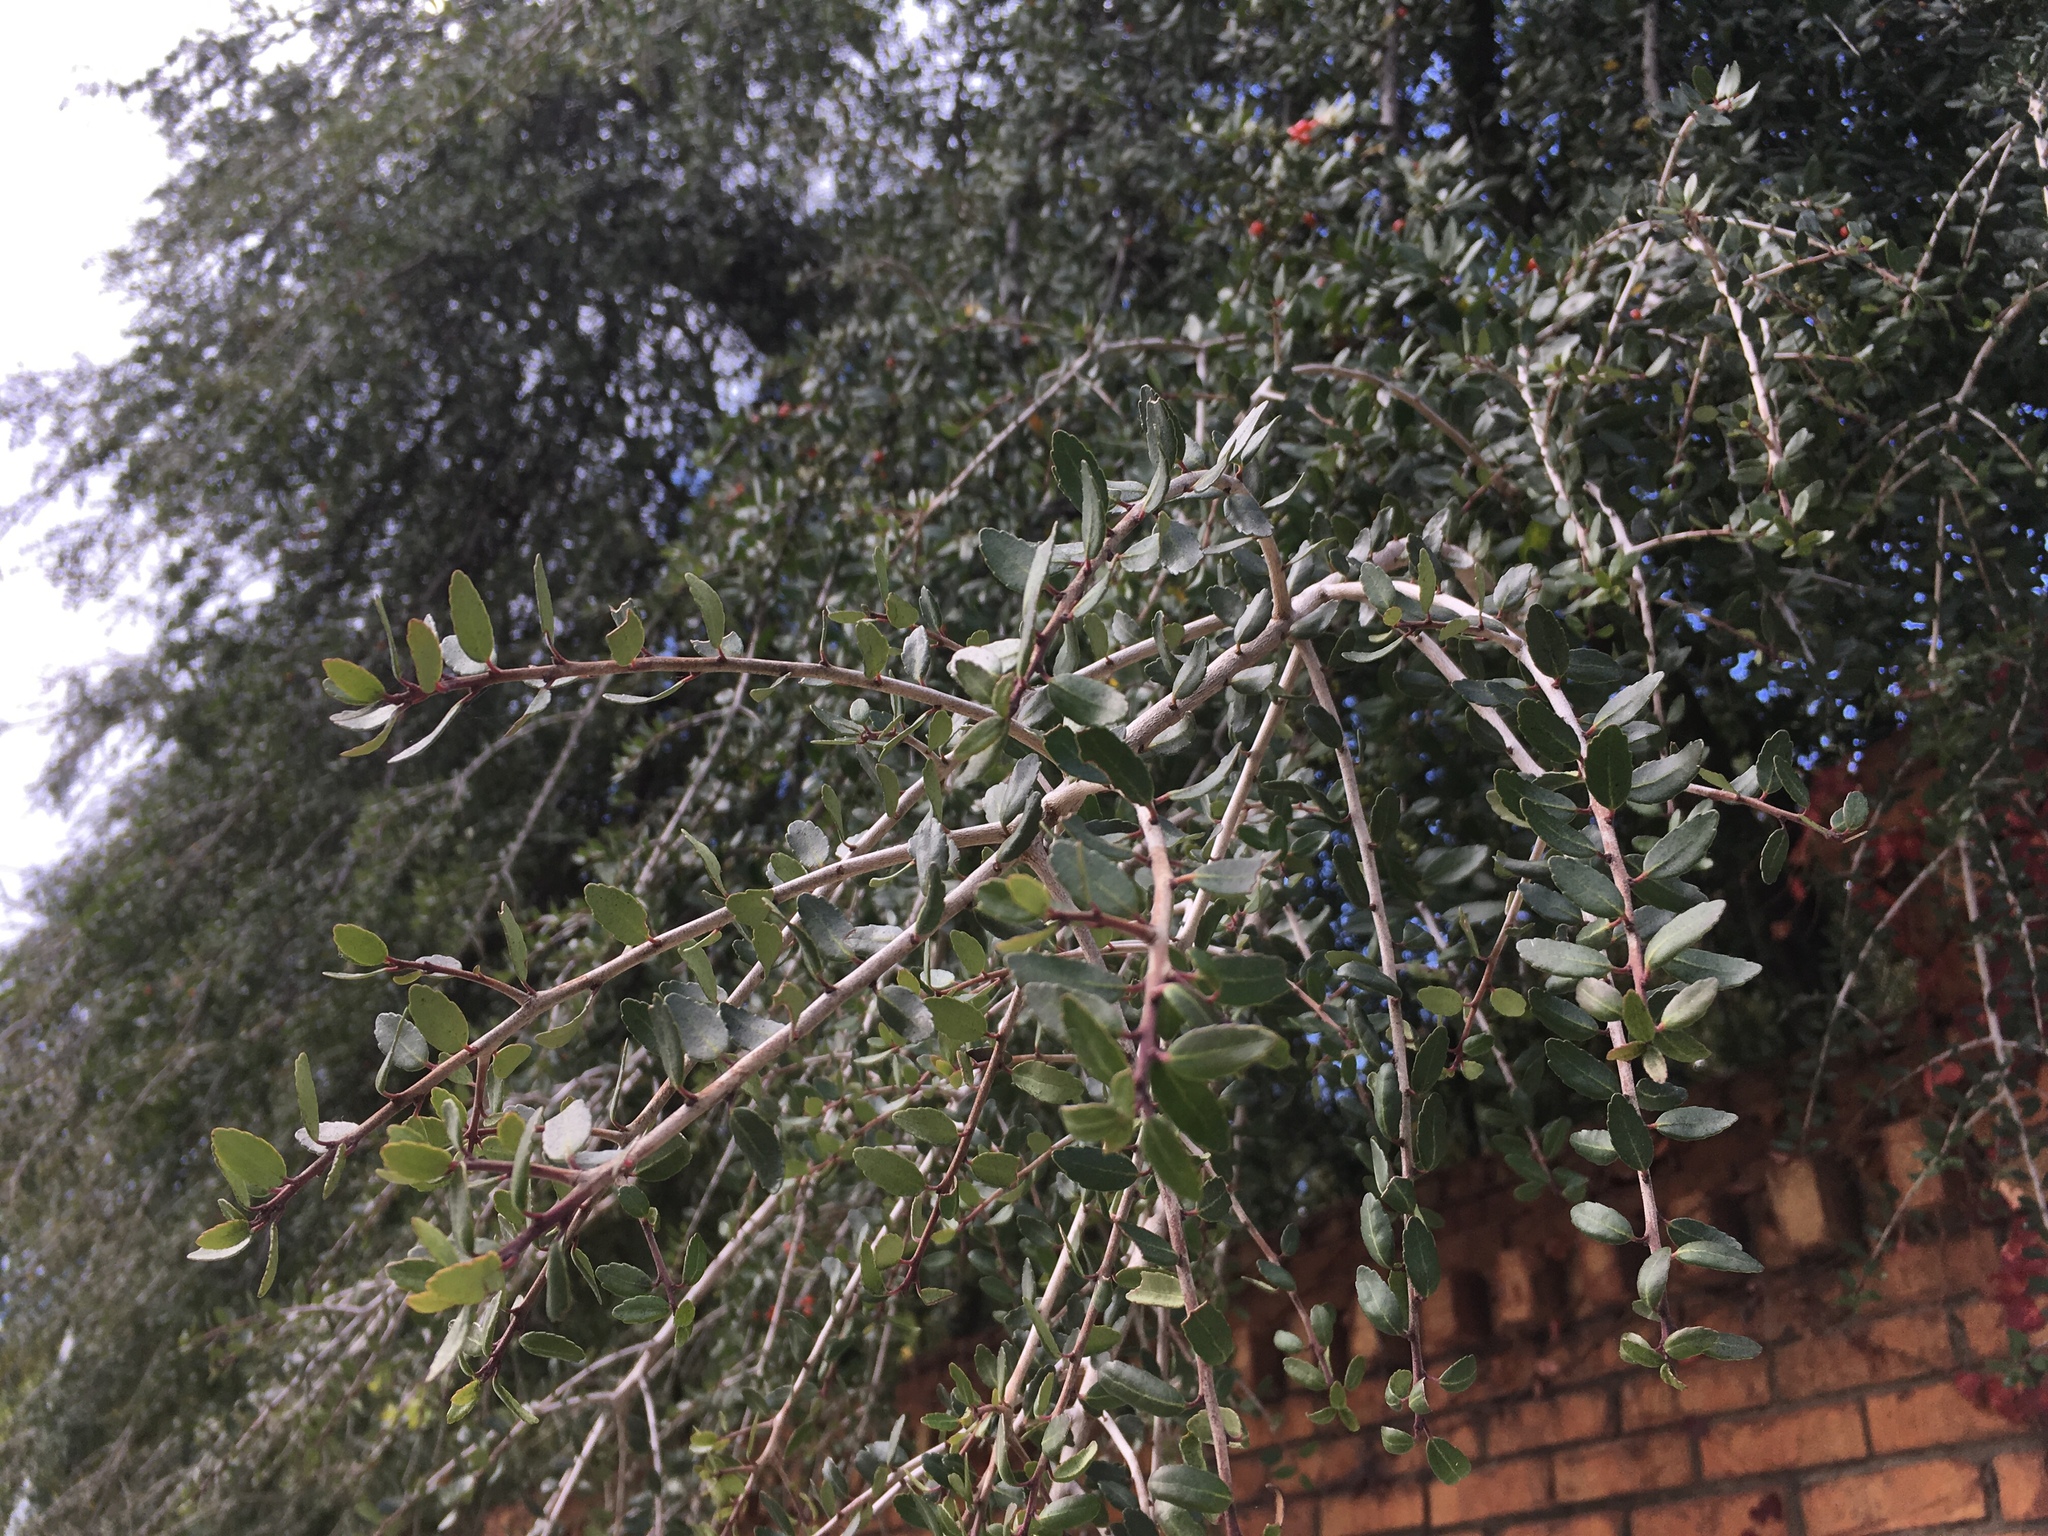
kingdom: Plantae
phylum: Tracheophyta
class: Magnoliopsida
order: Aquifoliales
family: Aquifoliaceae
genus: Ilex
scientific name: Ilex vomitoria
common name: Yaupon holly
